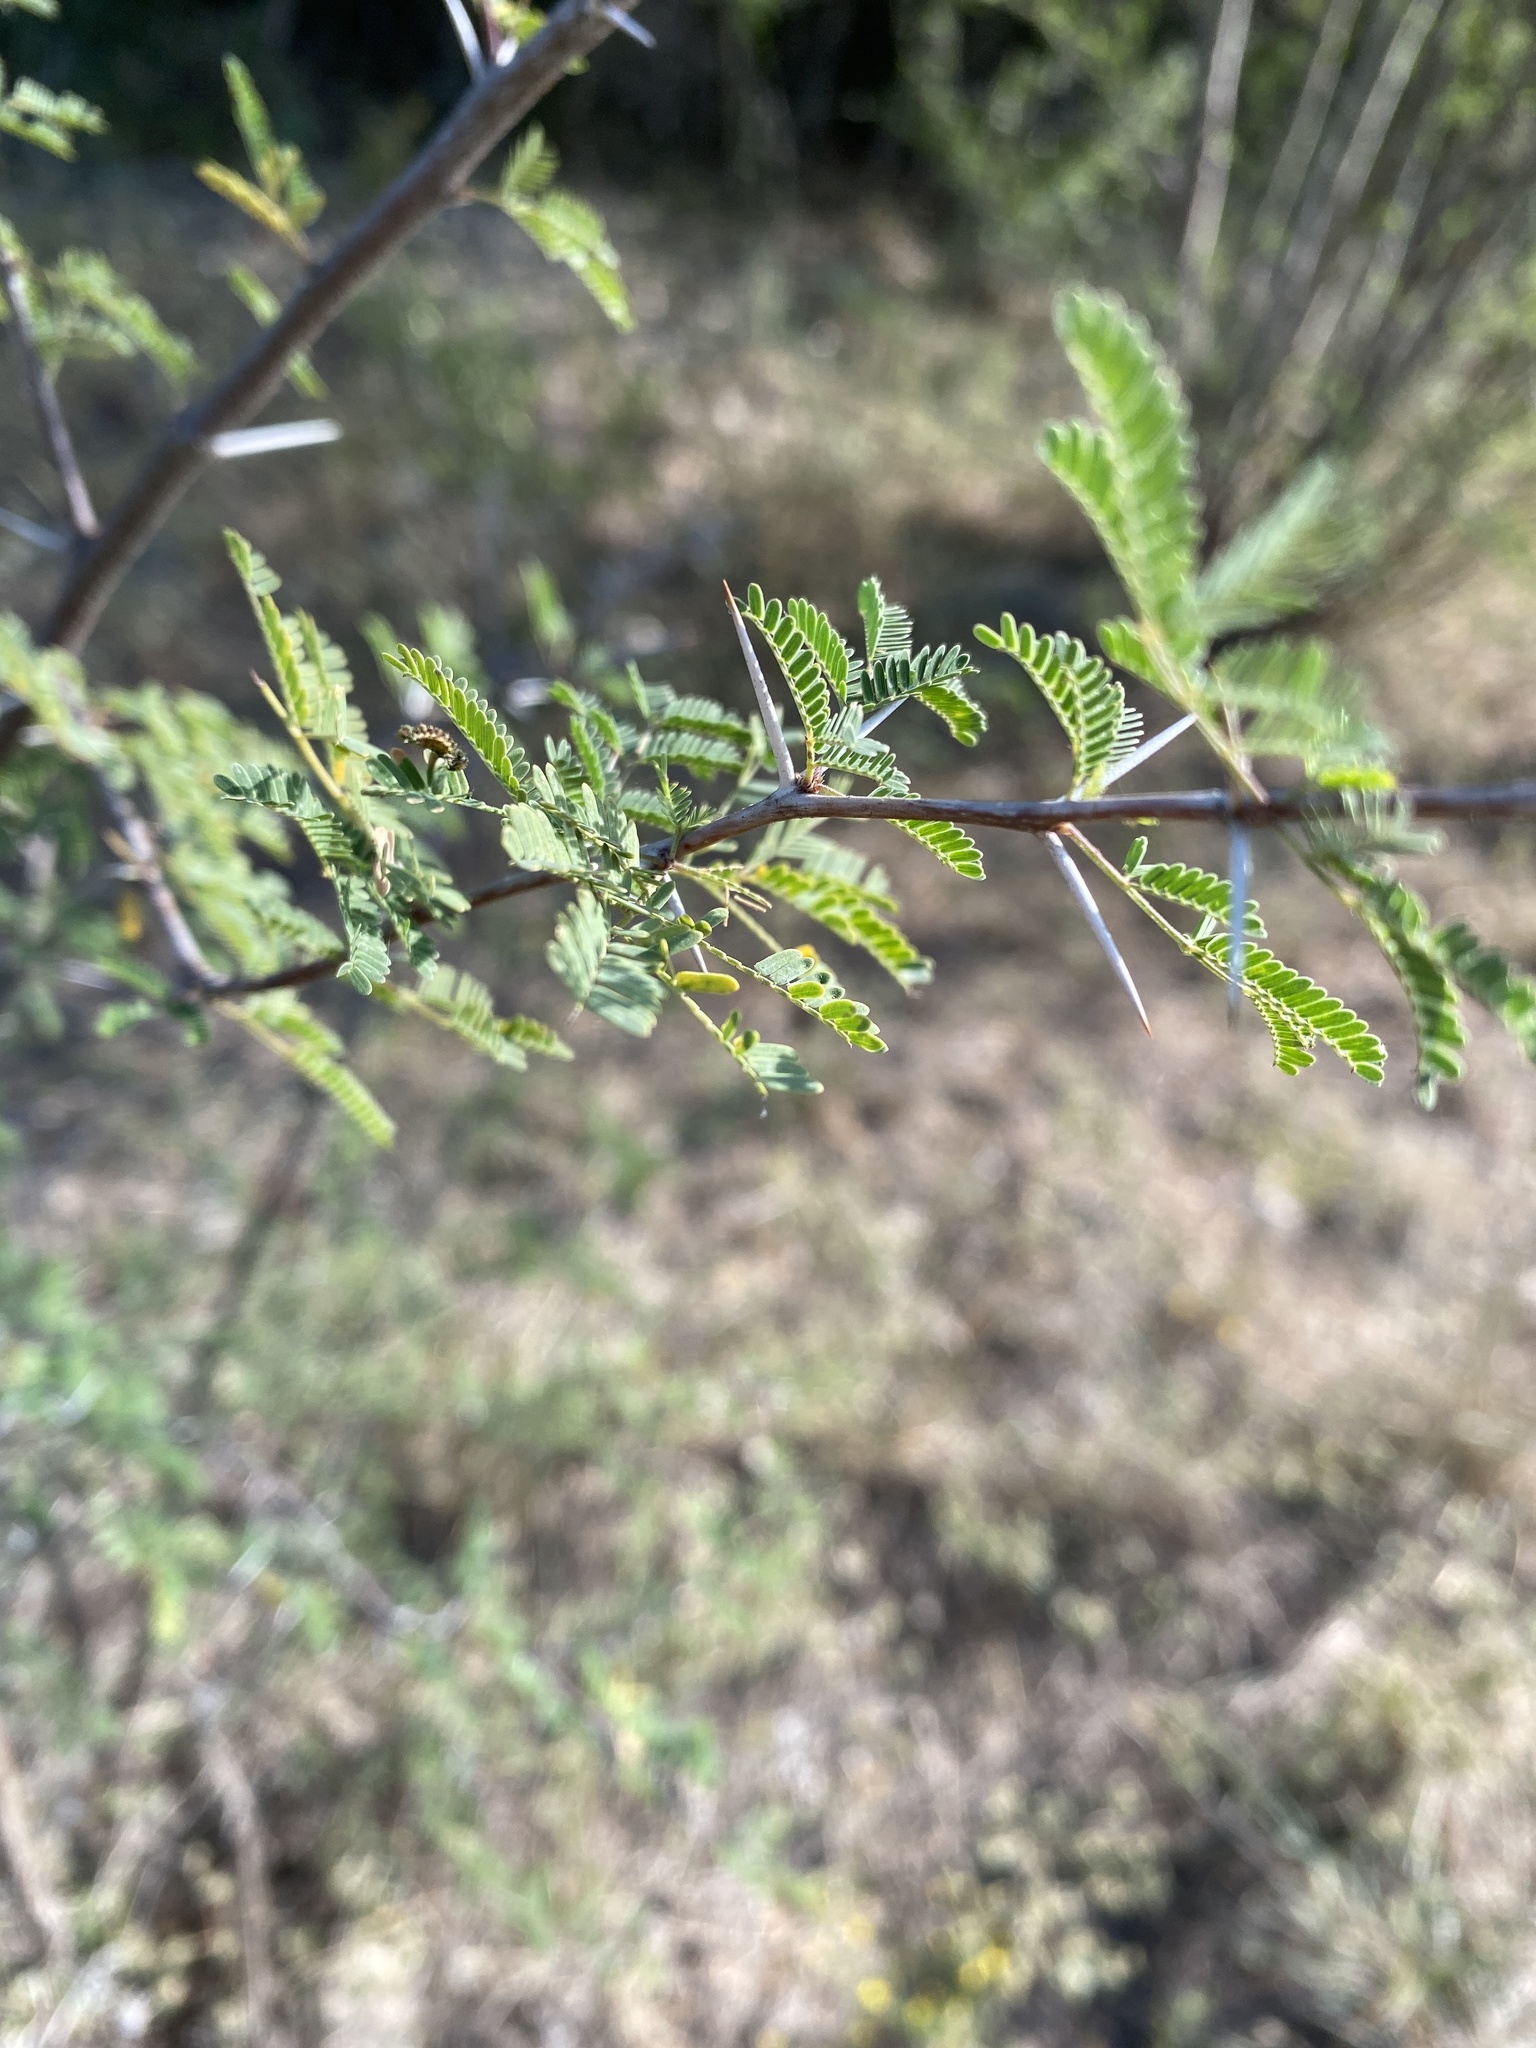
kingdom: Plantae
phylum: Tracheophyta
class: Magnoliopsida
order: Fabales
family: Fabaceae
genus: Vachellia
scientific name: Vachellia farnesiana
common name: Sweet acacia
